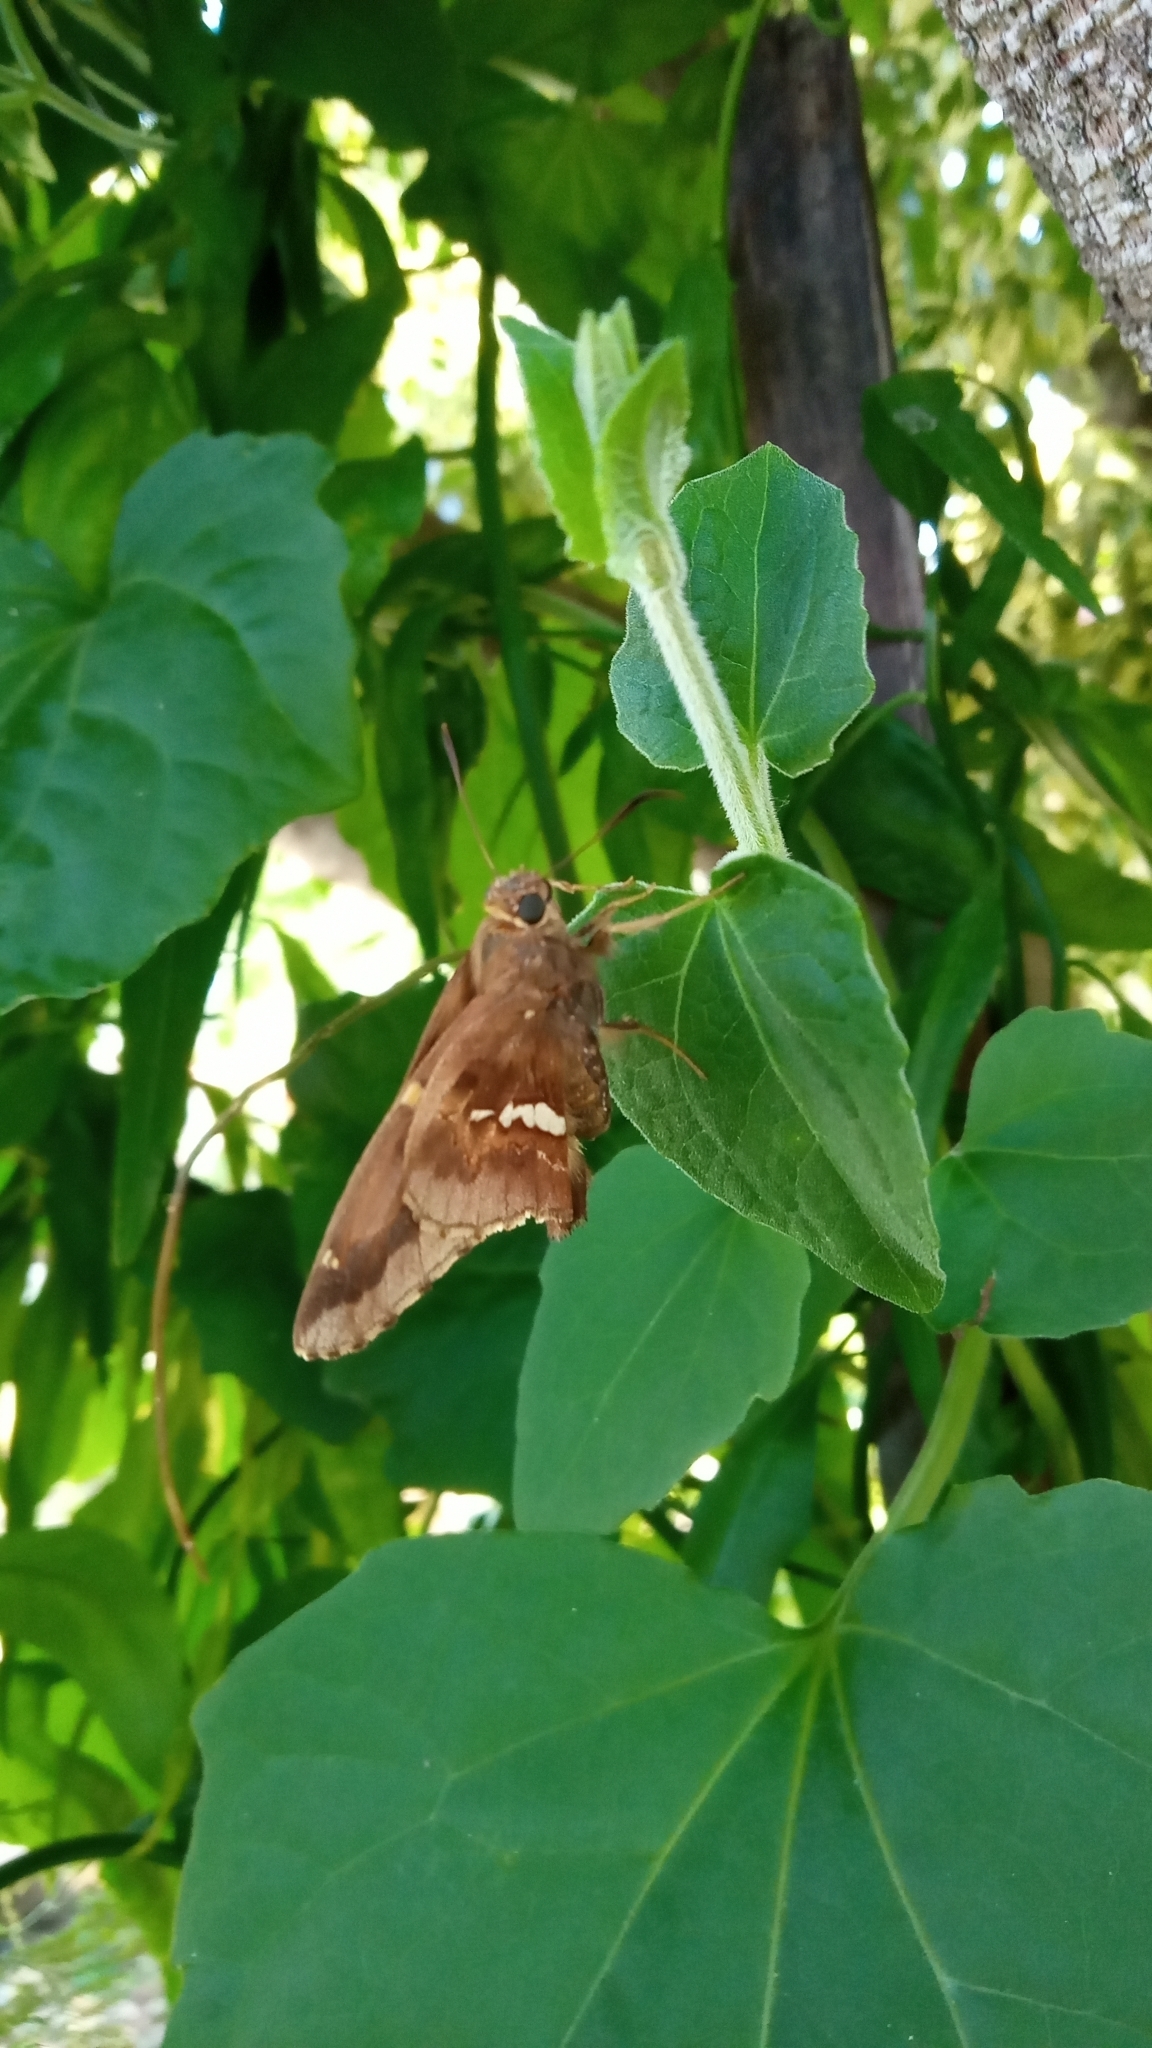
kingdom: Animalia
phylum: Arthropoda
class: Insecta
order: Lepidoptera
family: Hesperiidae
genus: Epargyreus
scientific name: Epargyreus tmolis
